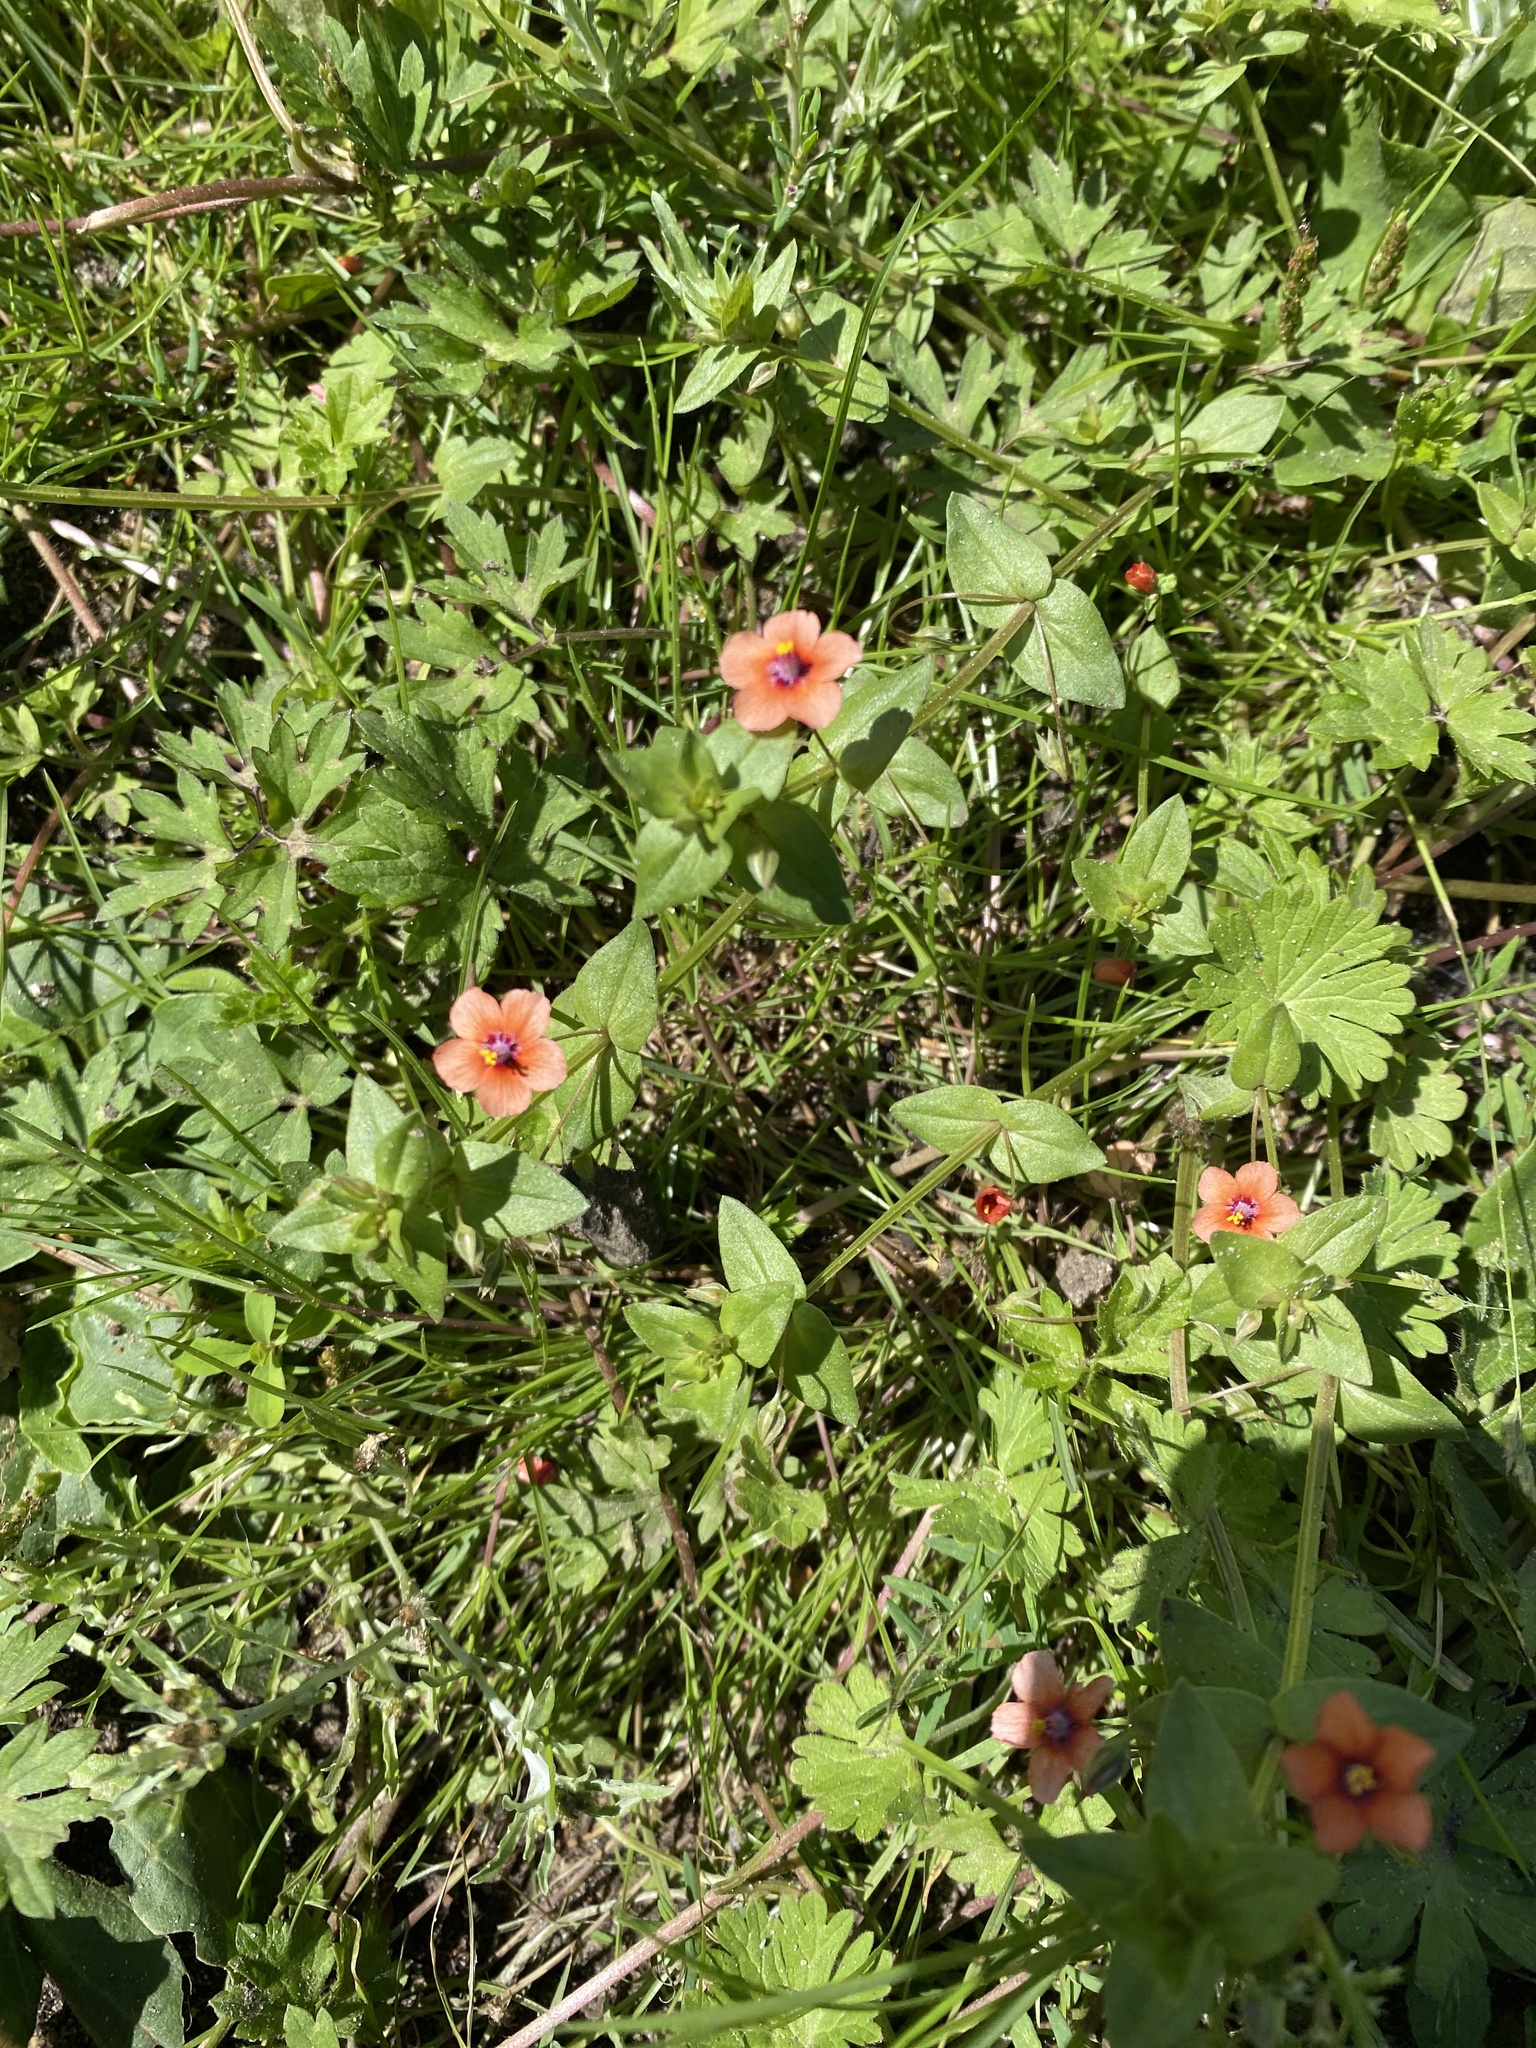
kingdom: Plantae
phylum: Tracheophyta
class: Magnoliopsida
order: Ericales
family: Primulaceae
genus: Lysimachia
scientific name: Lysimachia arvensis
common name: Scarlet pimpernel
